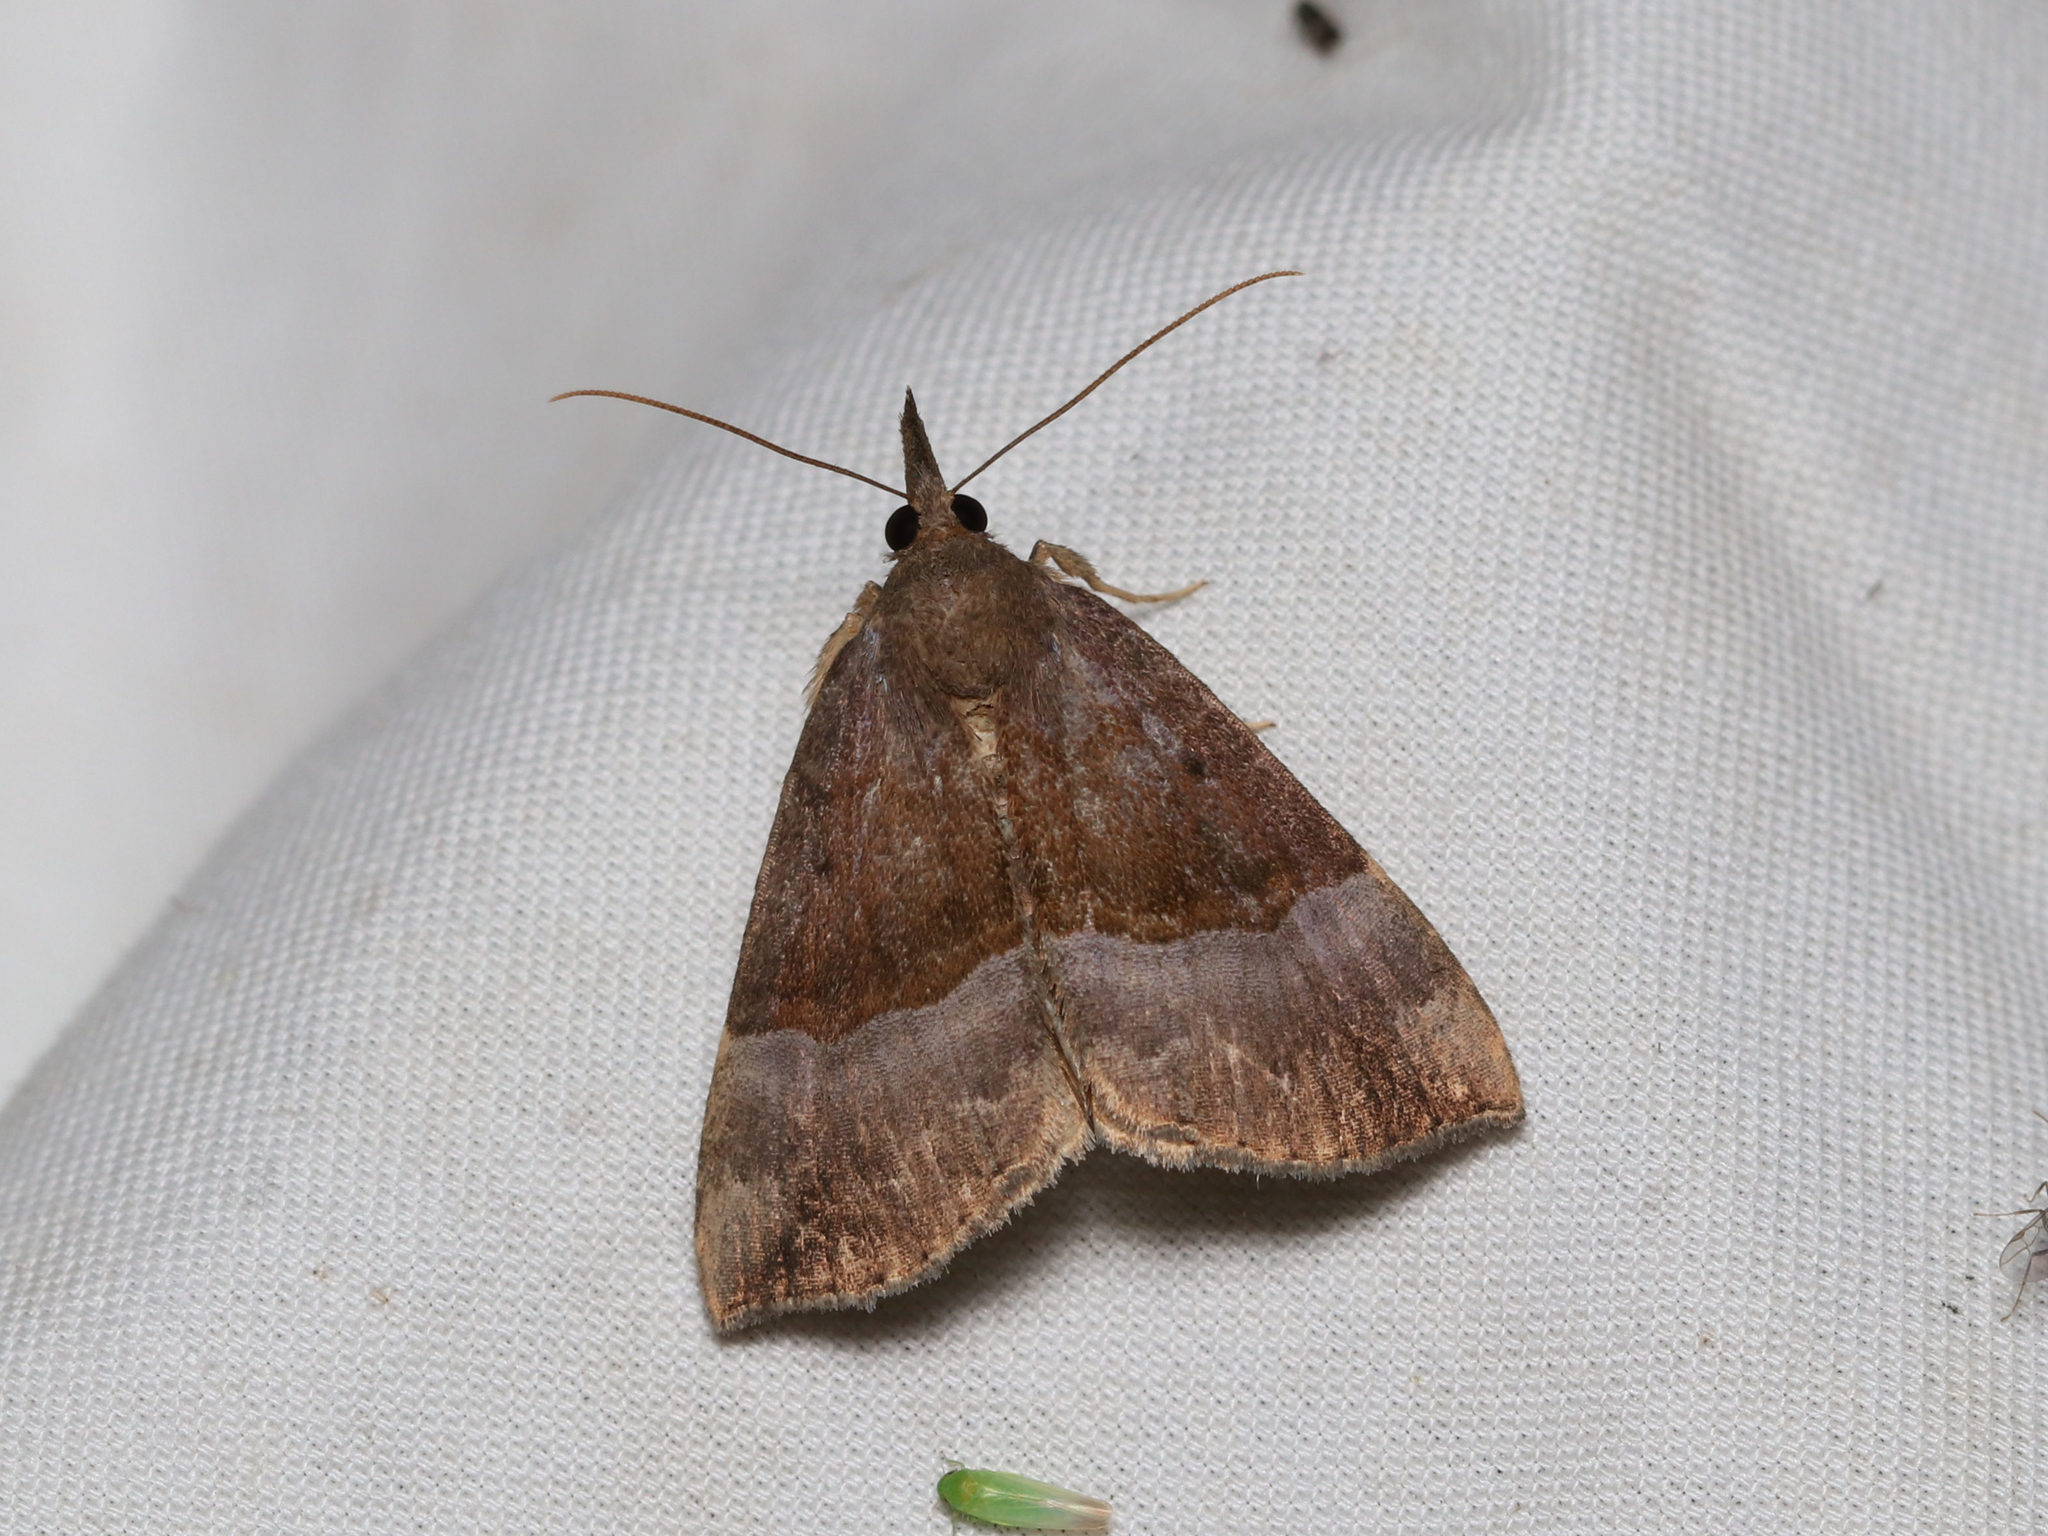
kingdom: Animalia
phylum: Arthropoda
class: Insecta
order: Lepidoptera
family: Erebidae
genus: Hypena
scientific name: Hypena madefactalis
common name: Gray-edged snout
